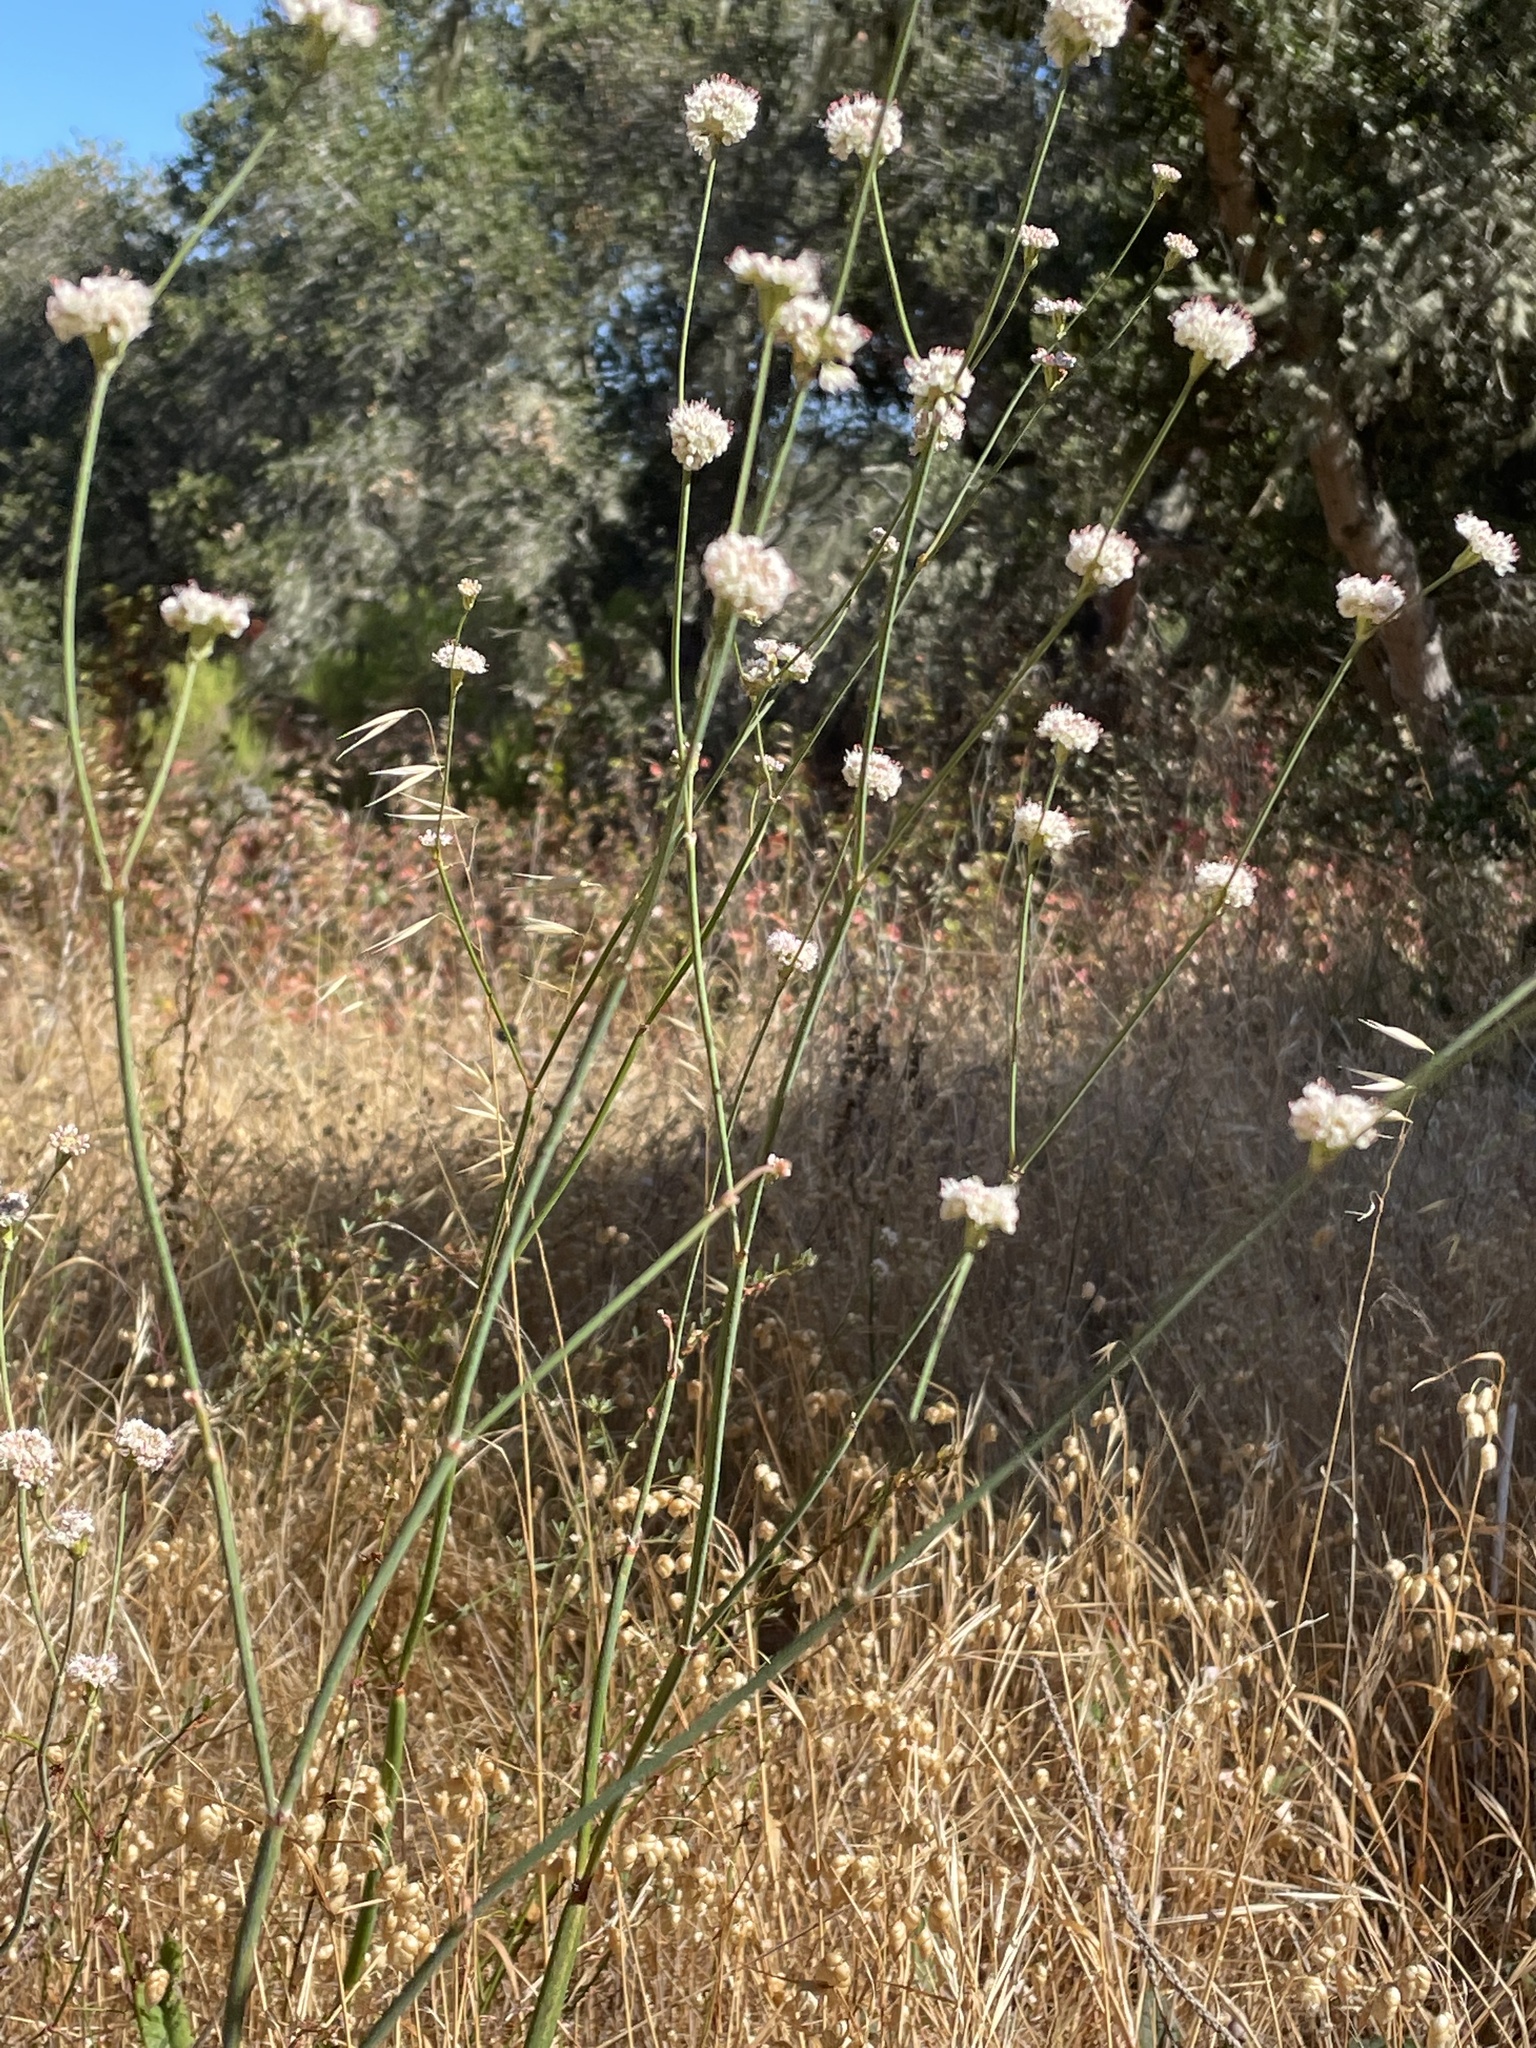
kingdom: Plantae
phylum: Tracheophyta
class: Magnoliopsida
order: Caryophyllales
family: Polygonaceae
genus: Eriogonum
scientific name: Eriogonum nudum
